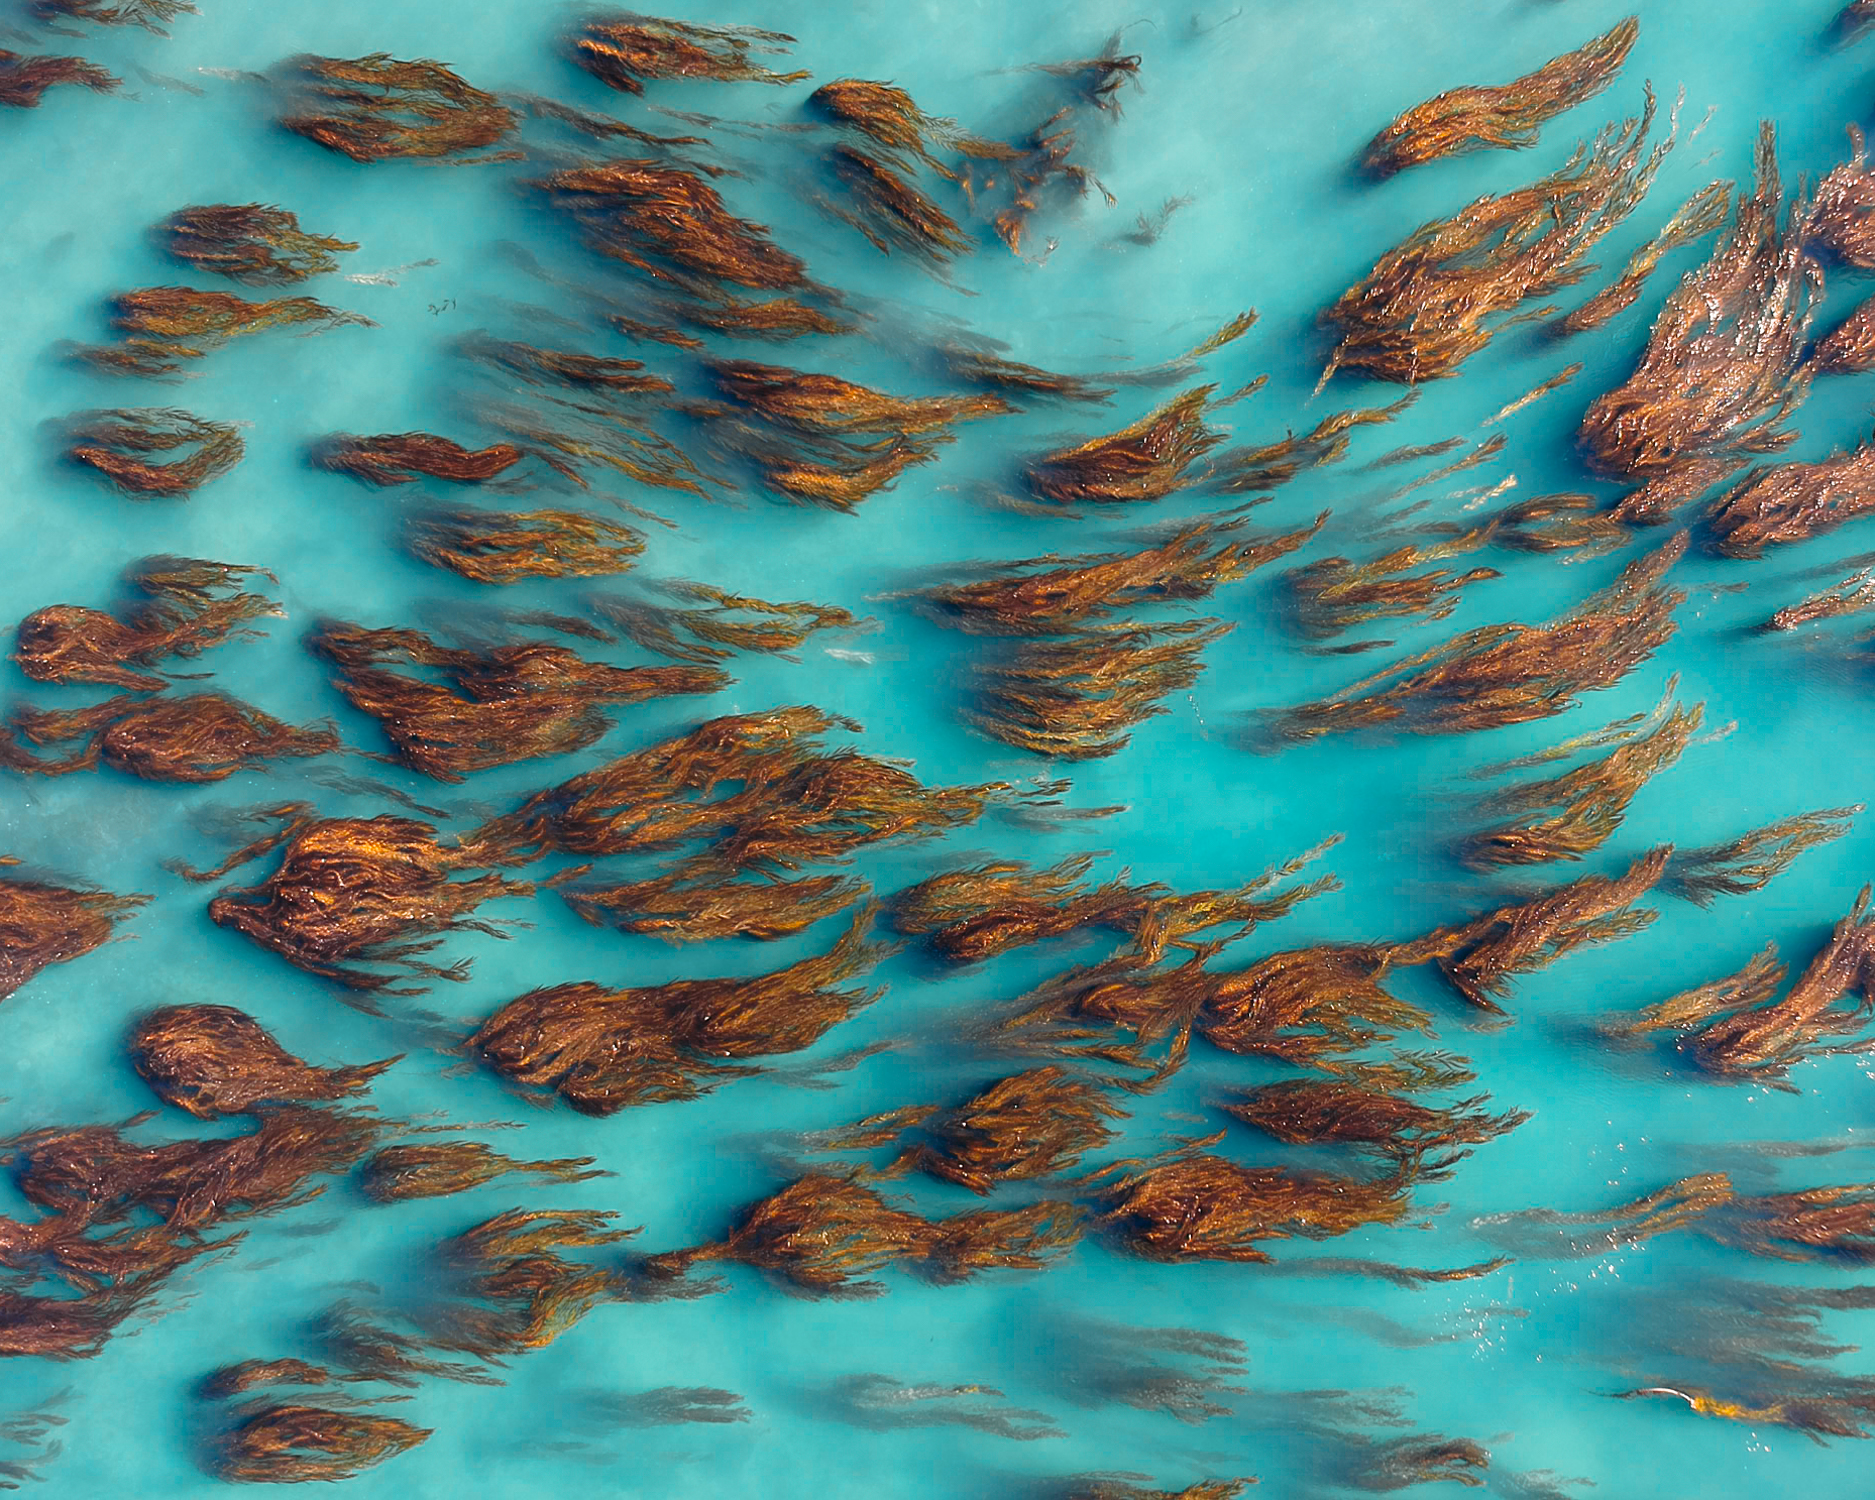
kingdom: Chromista
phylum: Ochrophyta
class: Phaeophyceae
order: Laminariales
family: Laminariaceae
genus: Macrocystis
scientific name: Macrocystis pyrifera
